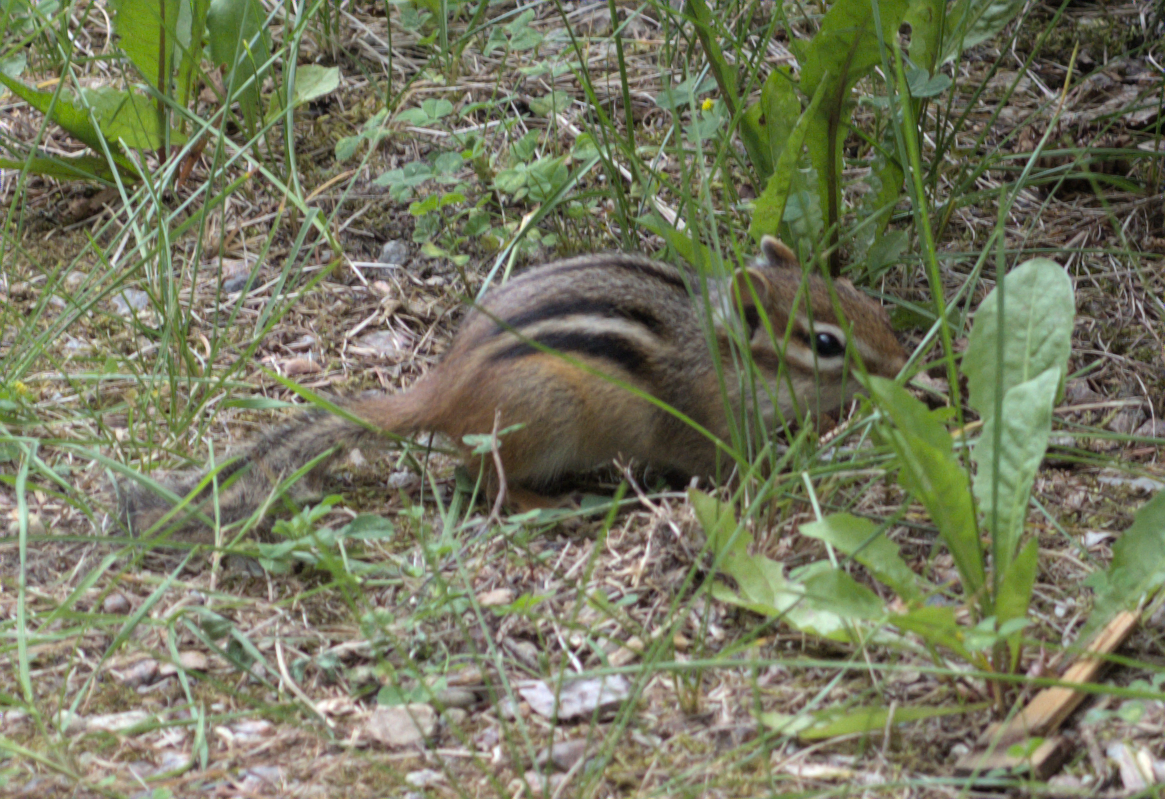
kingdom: Animalia
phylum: Chordata
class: Mammalia
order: Rodentia
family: Sciuridae
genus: Tamias
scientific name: Tamias striatus
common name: Eastern chipmunk
